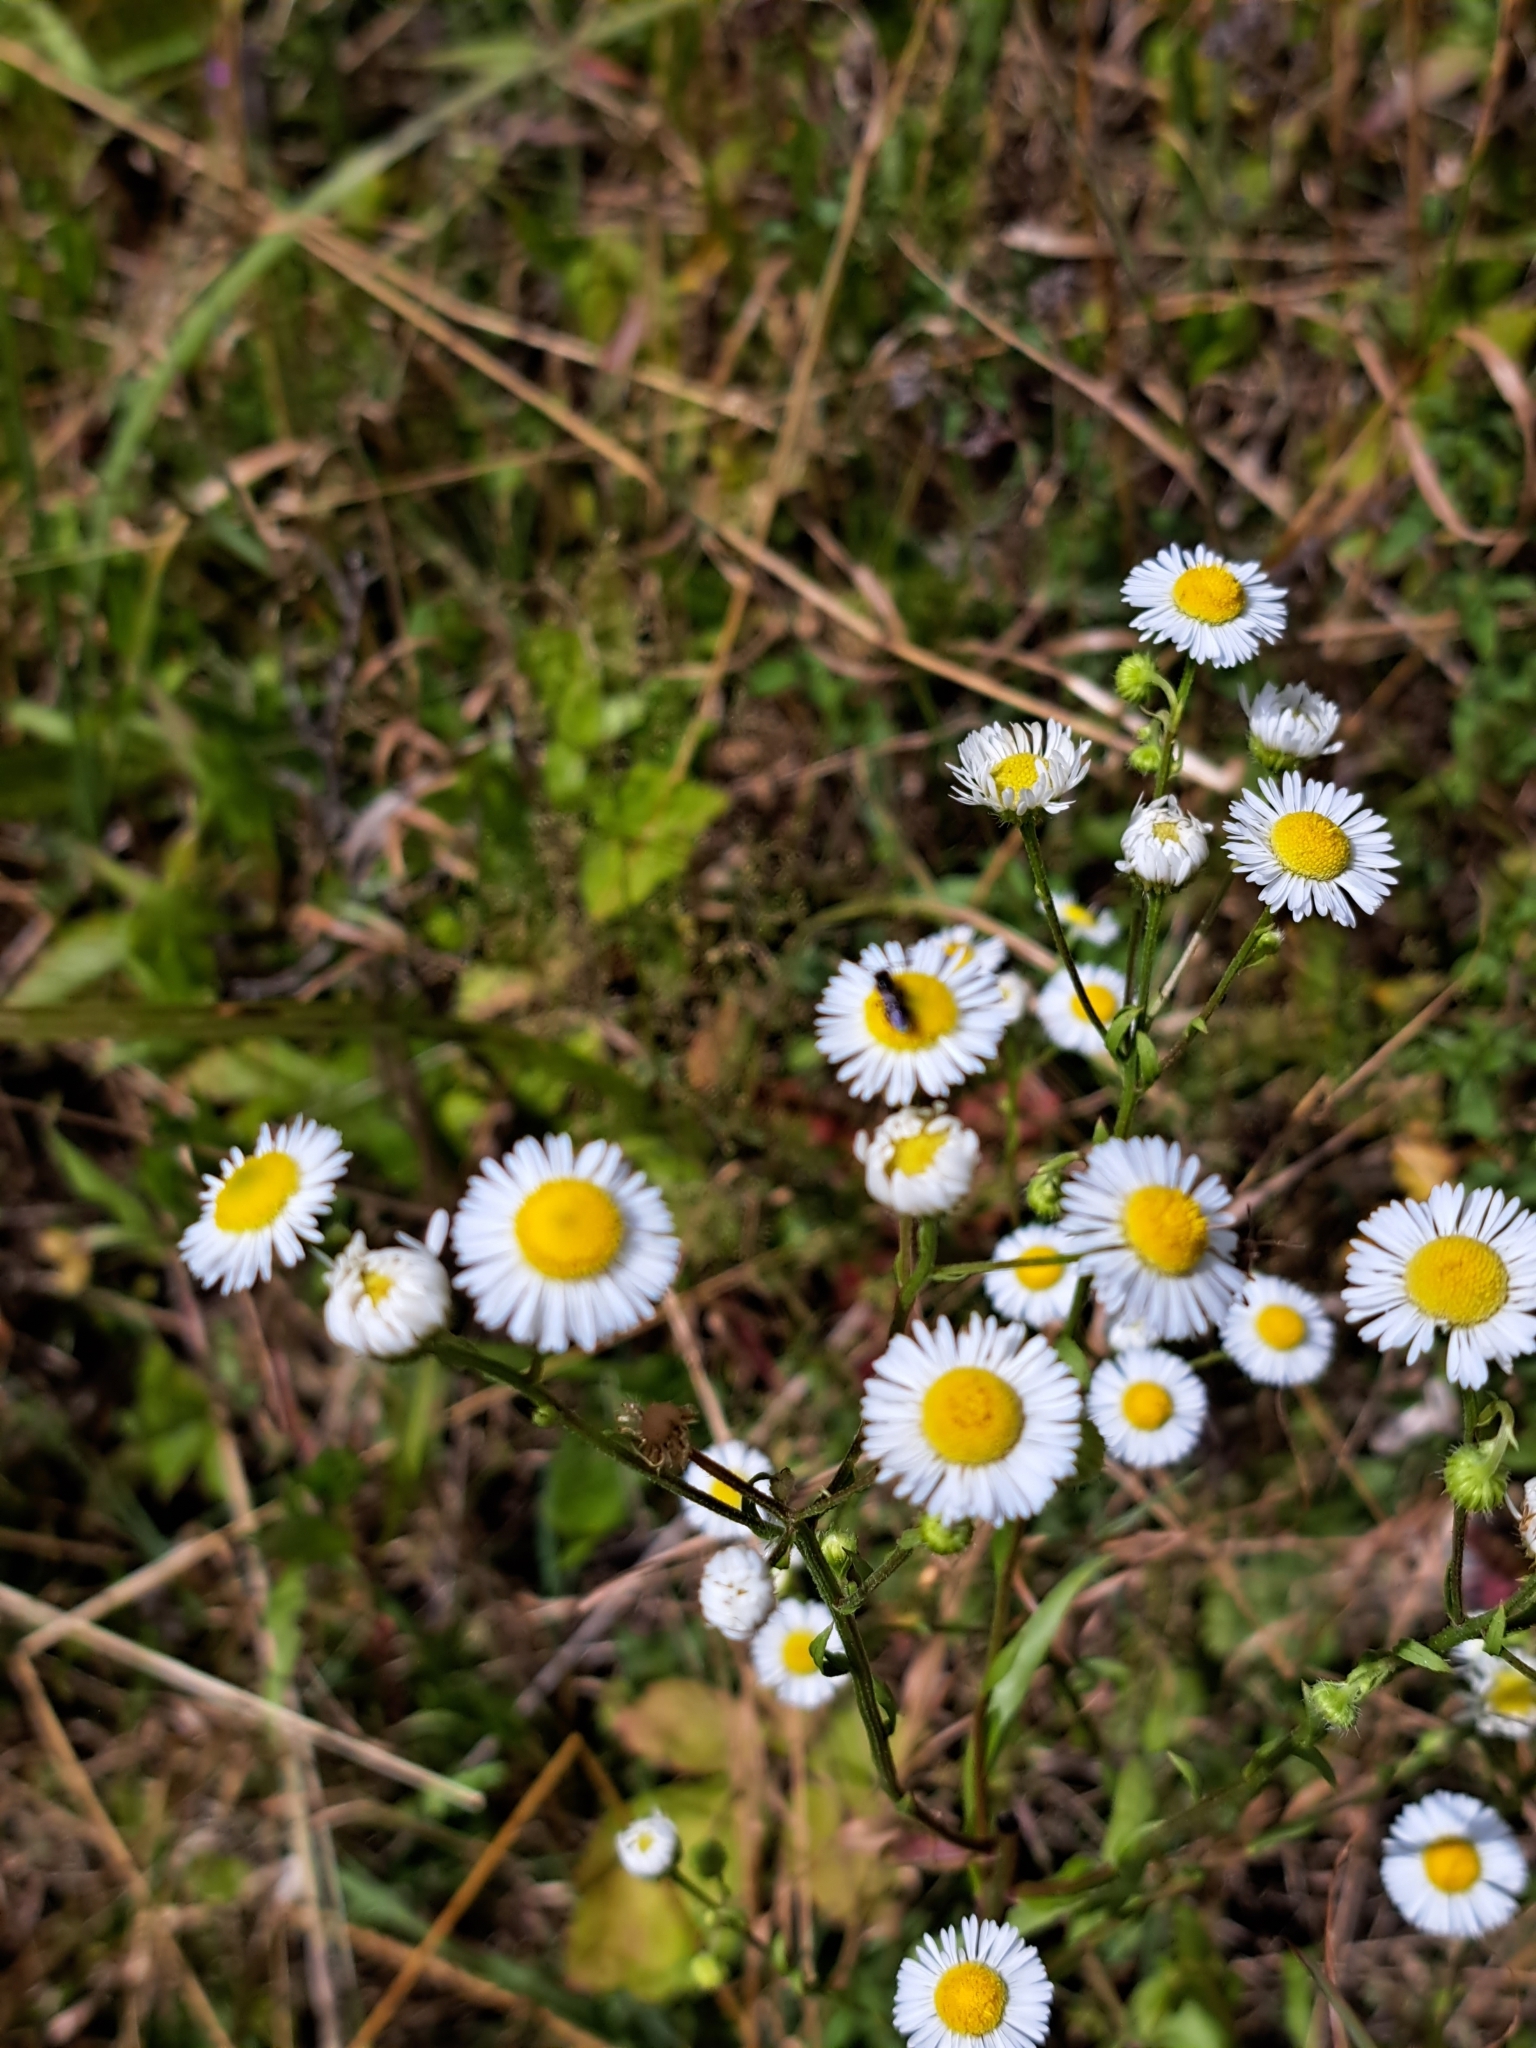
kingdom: Plantae
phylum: Tracheophyta
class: Magnoliopsida
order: Asterales
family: Asteraceae
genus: Erigeron
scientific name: Erigeron annuus
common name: Tall fleabane
